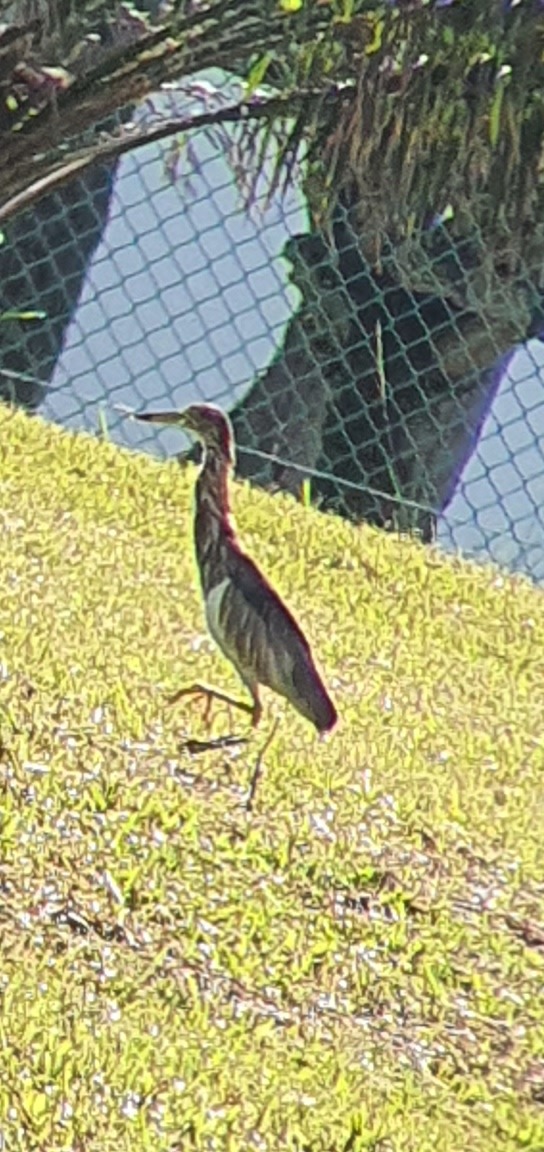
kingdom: Animalia
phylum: Chordata
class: Aves
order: Pelecaniformes
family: Ardeidae
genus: Ardeola
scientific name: Ardeola bacchus
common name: Chinese pond heron
